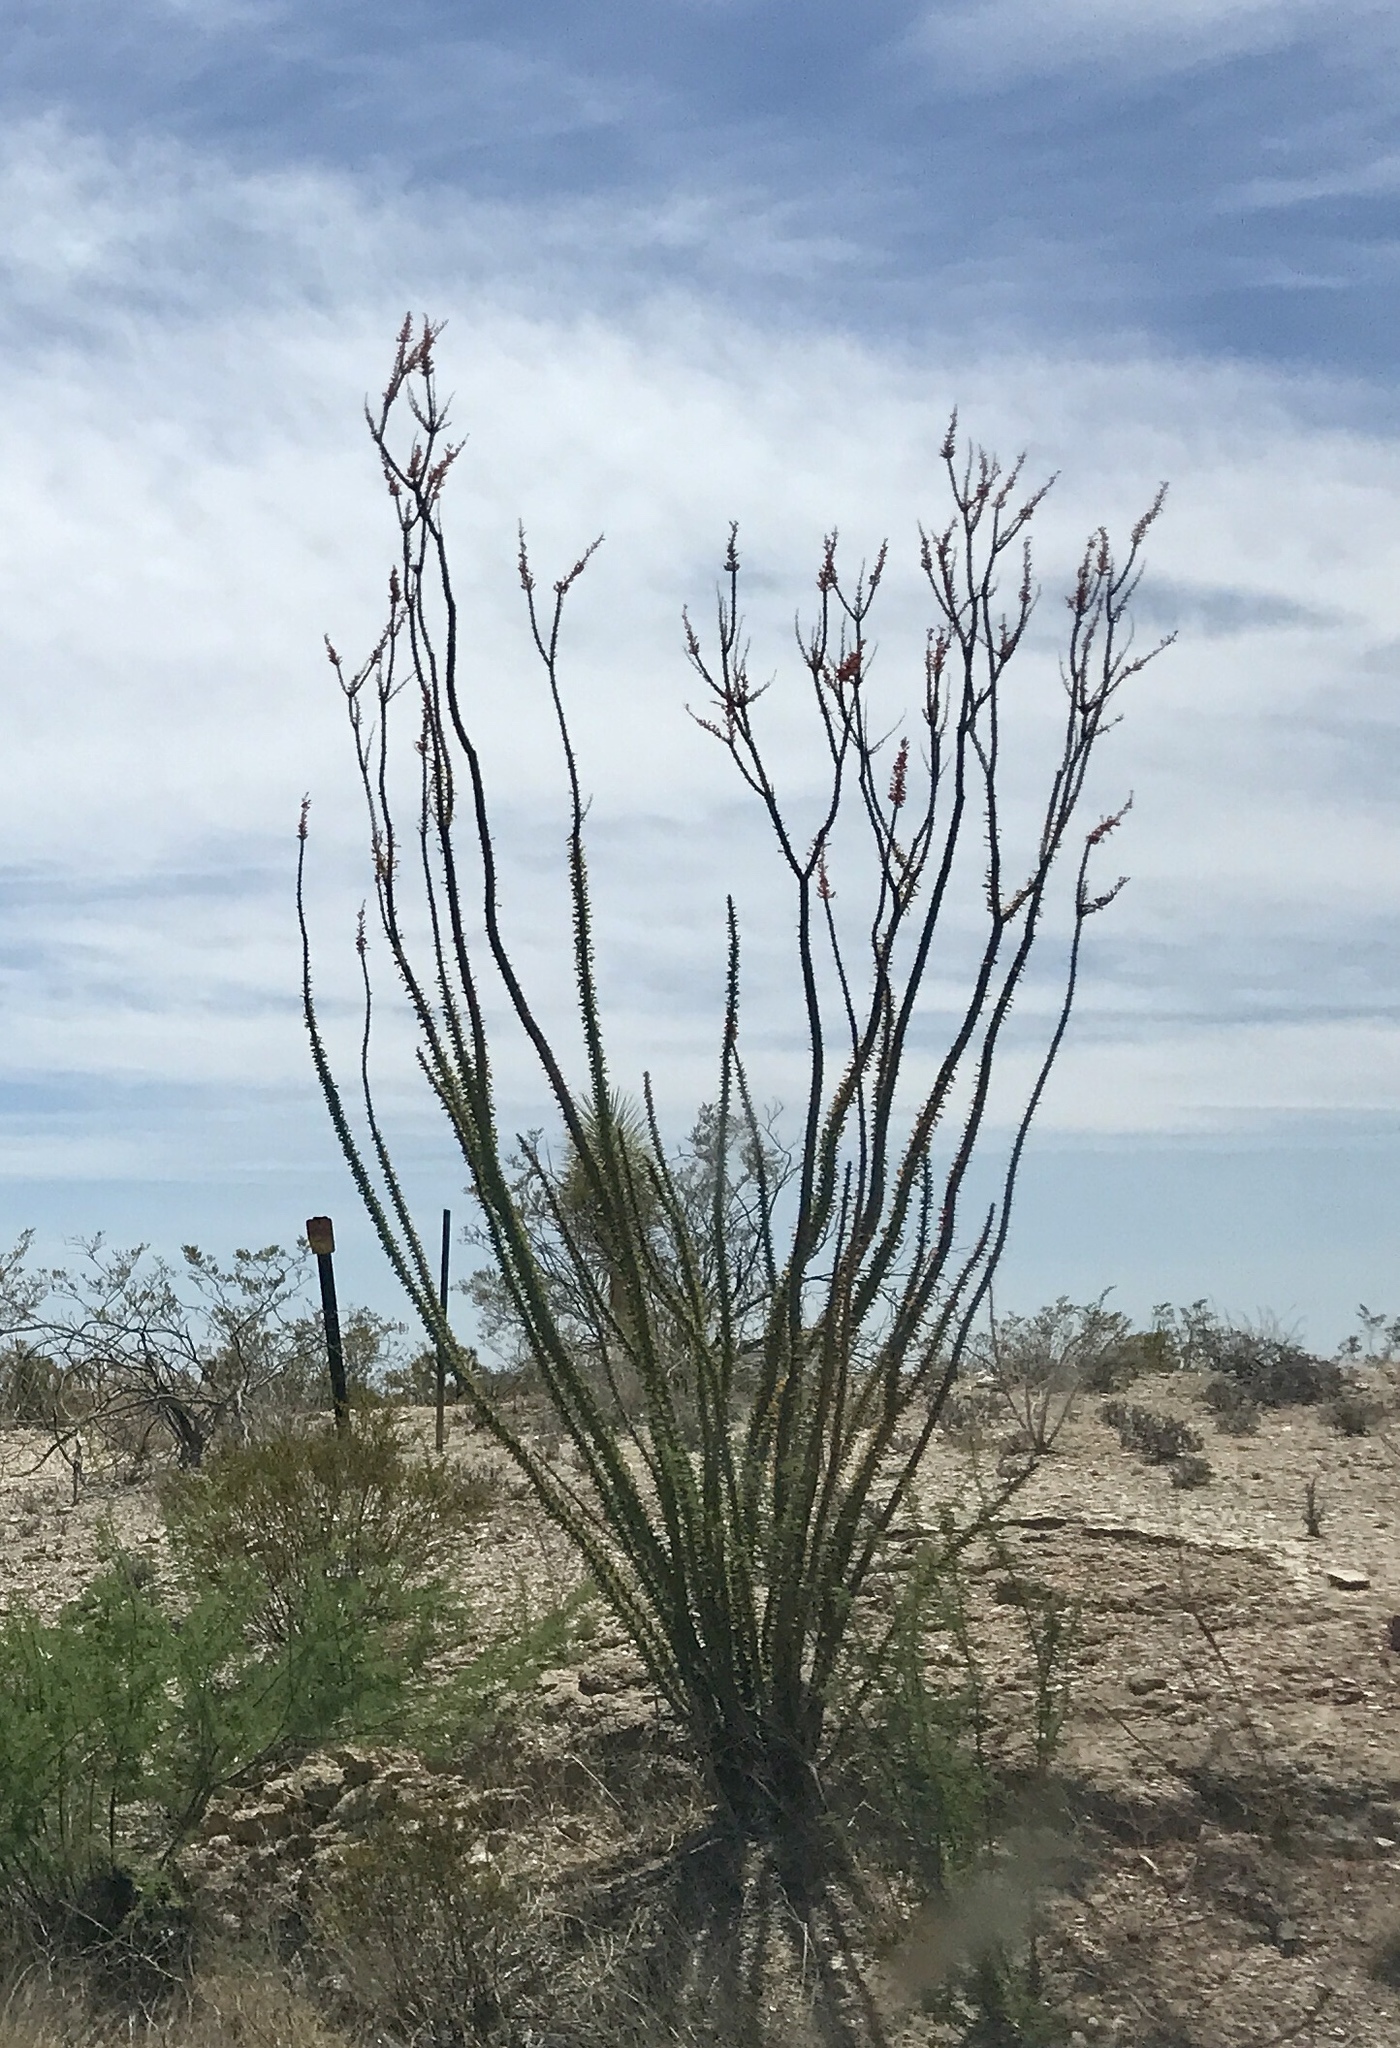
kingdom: Plantae
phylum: Tracheophyta
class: Magnoliopsida
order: Ericales
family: Fouquieriaceae
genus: Fouquieria
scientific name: Fouquieria splendens
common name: Vine-cactus
